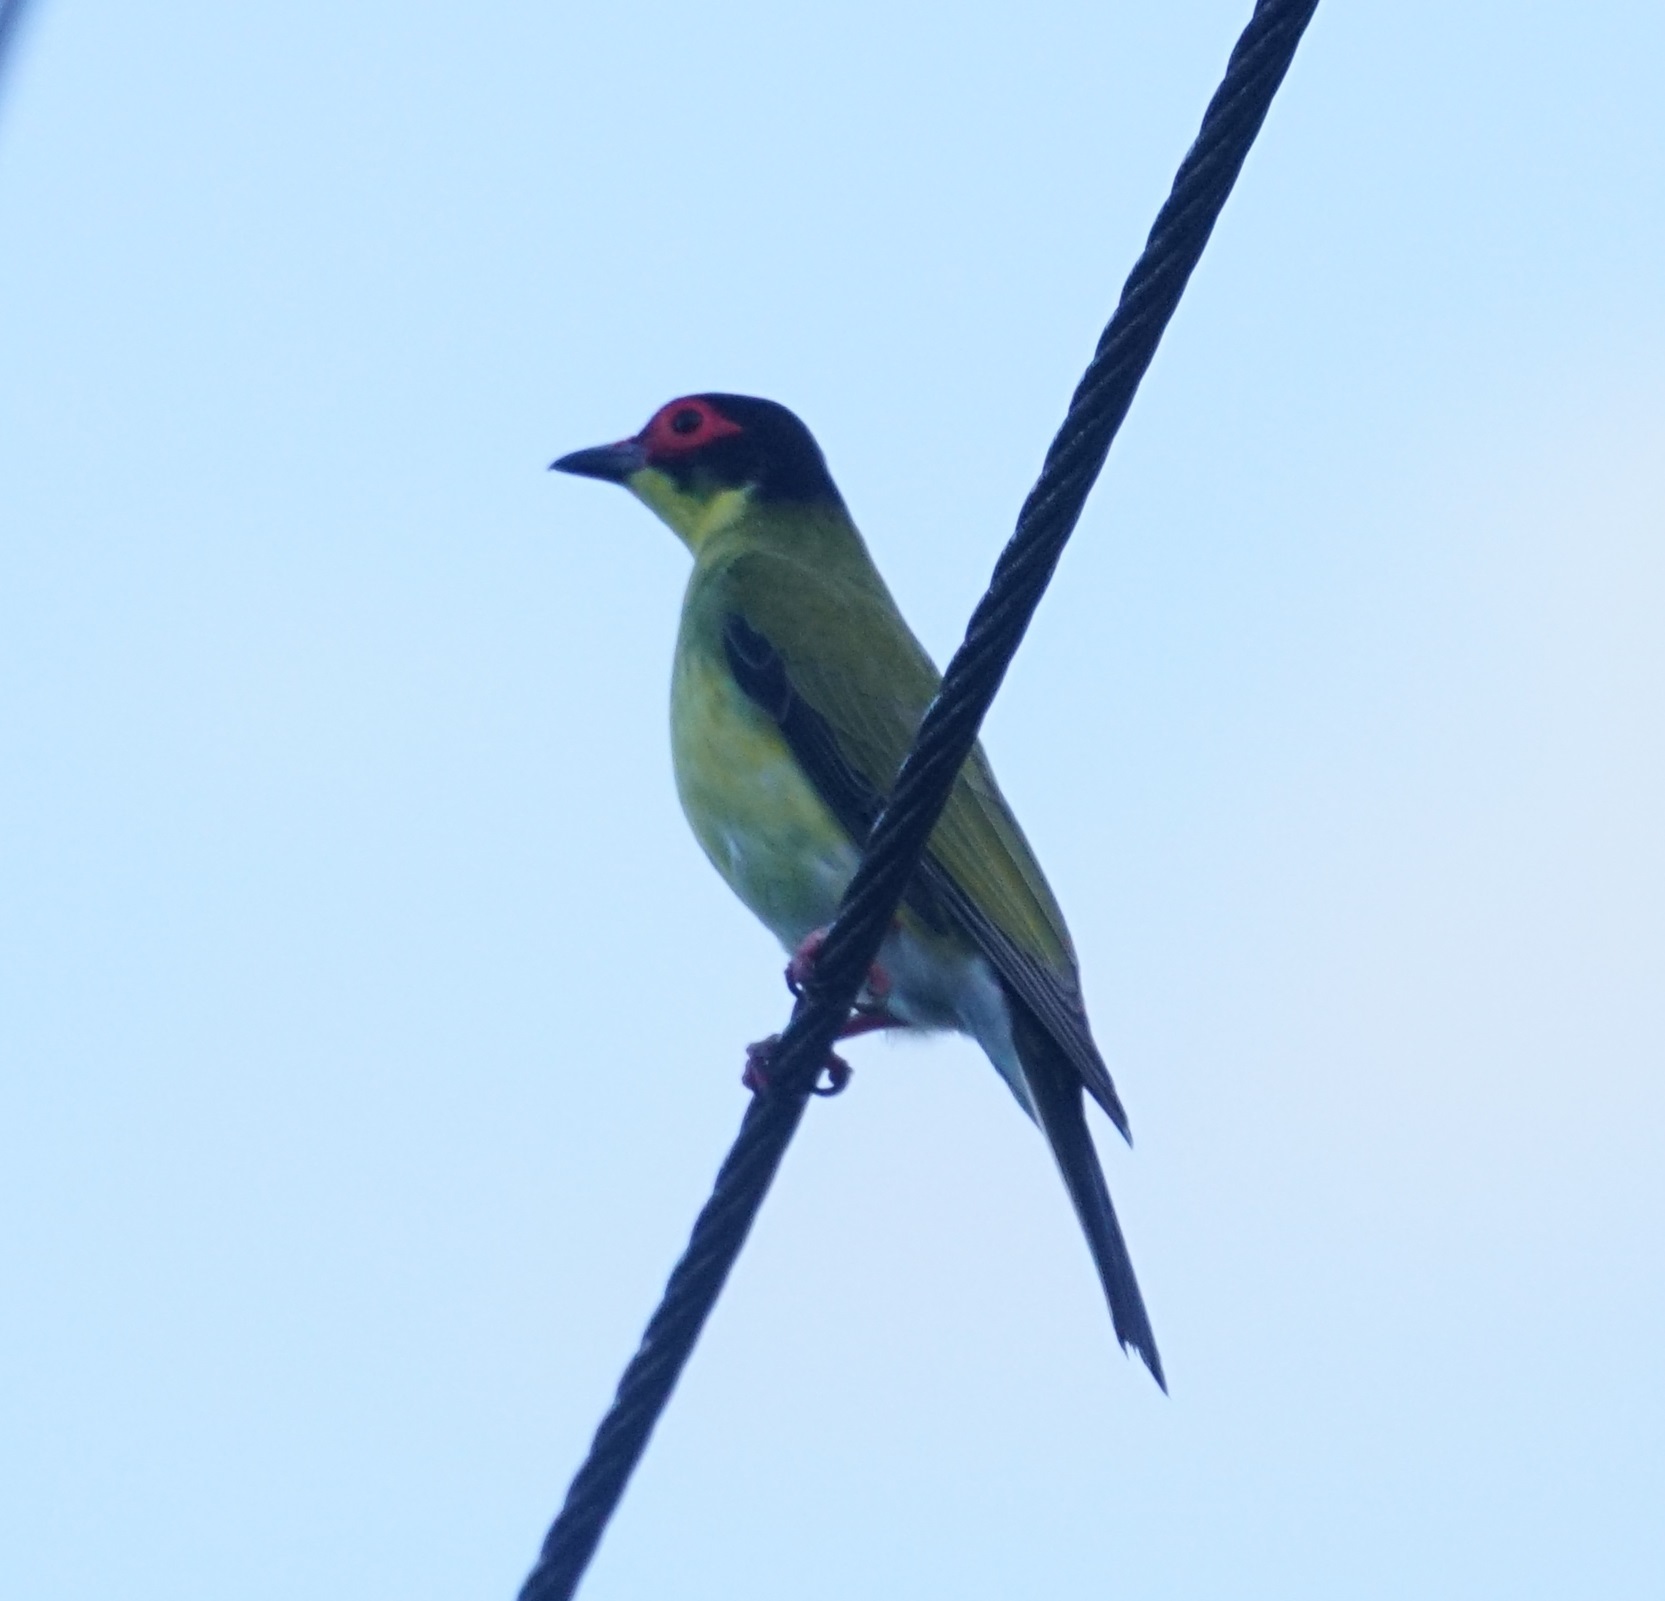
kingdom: Animalia
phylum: Chordata
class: Aves
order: Passeriformes
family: Oriolidae
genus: Sphecotheres
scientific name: Sphecotheres vieilloti
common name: Australasian figbird
